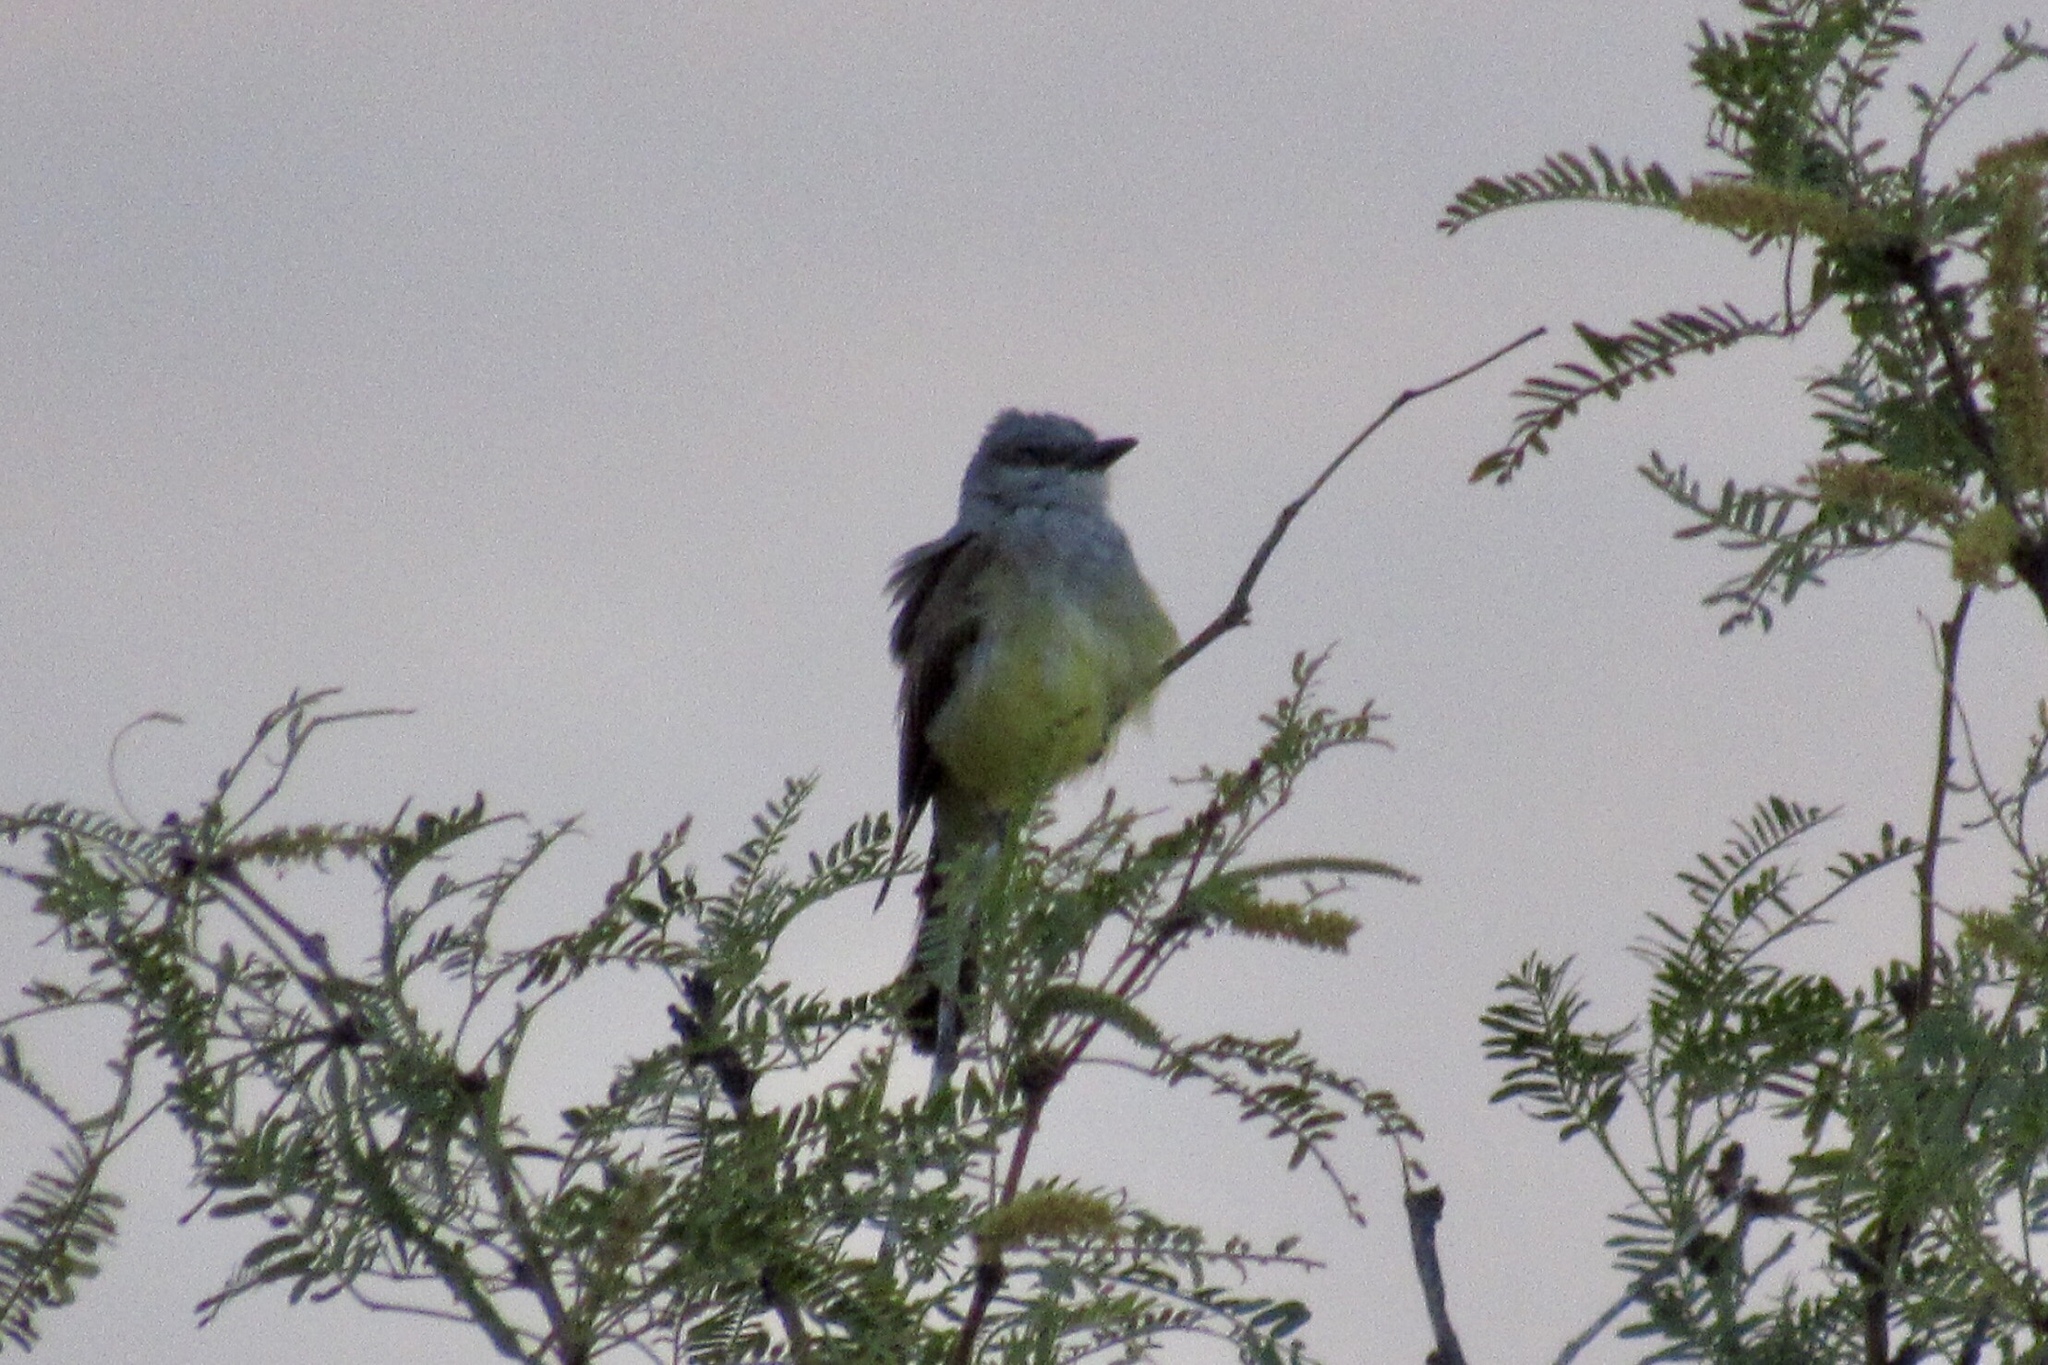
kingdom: Animalia
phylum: Chordata
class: Aves
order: Passeriformes
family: Tyrannidae
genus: Tyrannus
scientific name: Tyrannus verticalis
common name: Western kingbird
